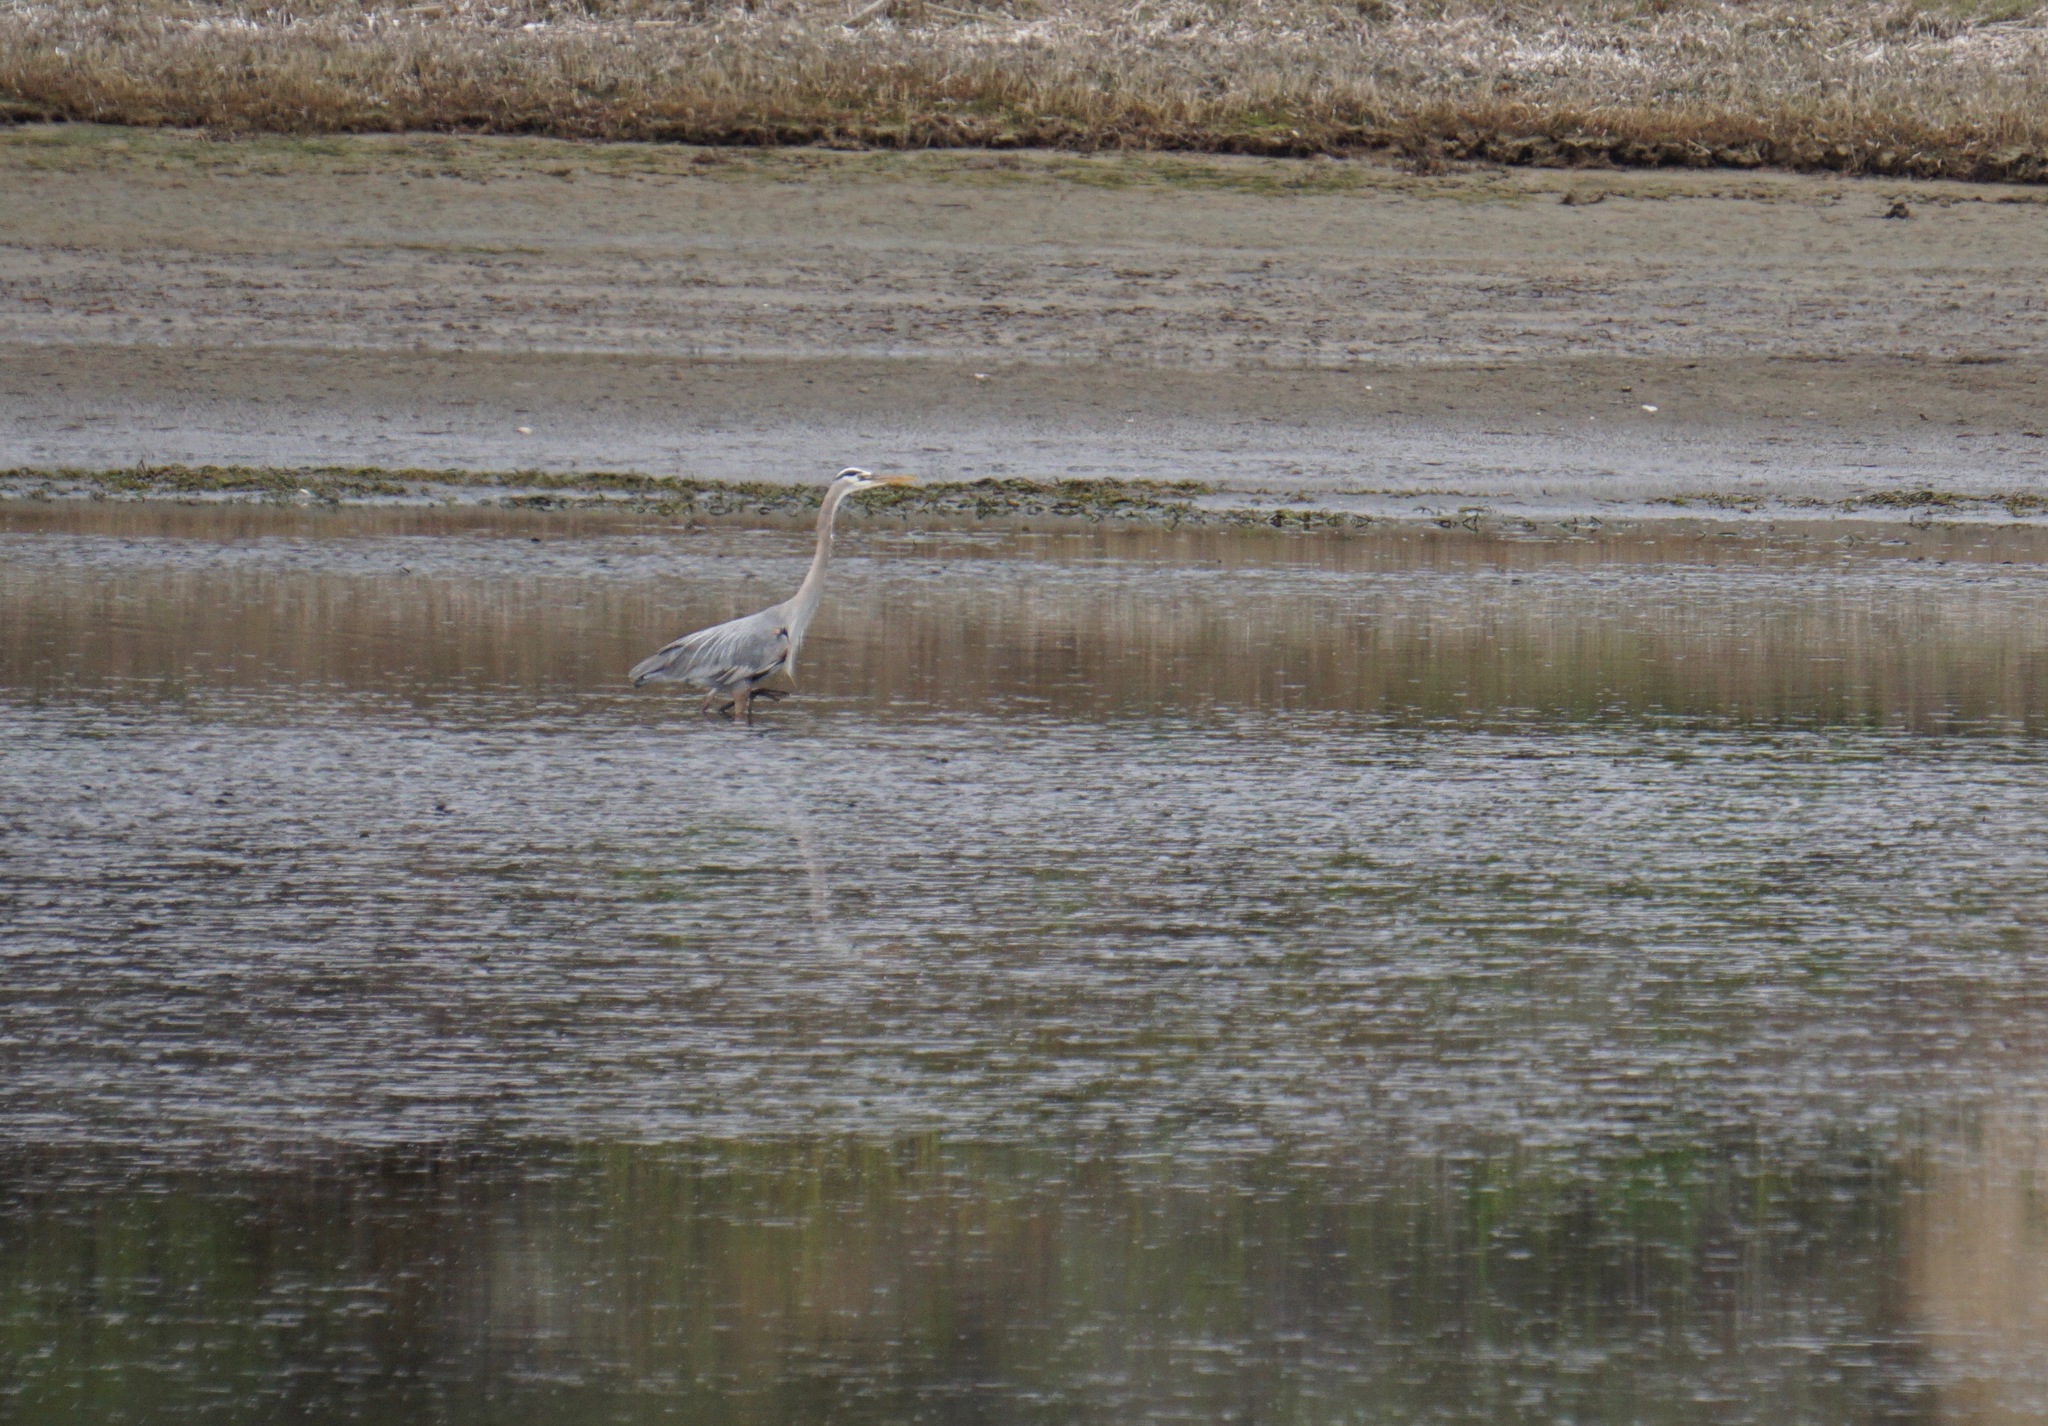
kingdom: Animalia
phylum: Chordata
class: Aves
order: Pelecaniformes
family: Ardeidae
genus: Ardea
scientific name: Ardea herodias
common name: Great blue heron
